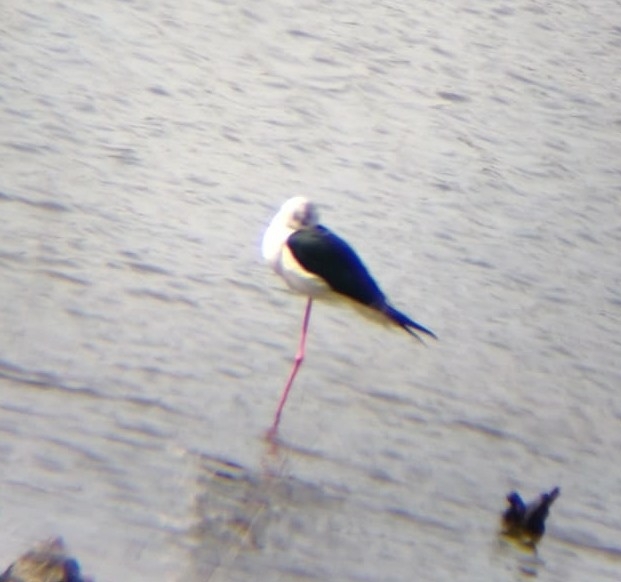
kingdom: Animalia
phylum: Chordata
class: Aves
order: Charadriiformes
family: Recurvirostridae
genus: Himantopus
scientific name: Himantopus himantopus
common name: Black-winged stilt
